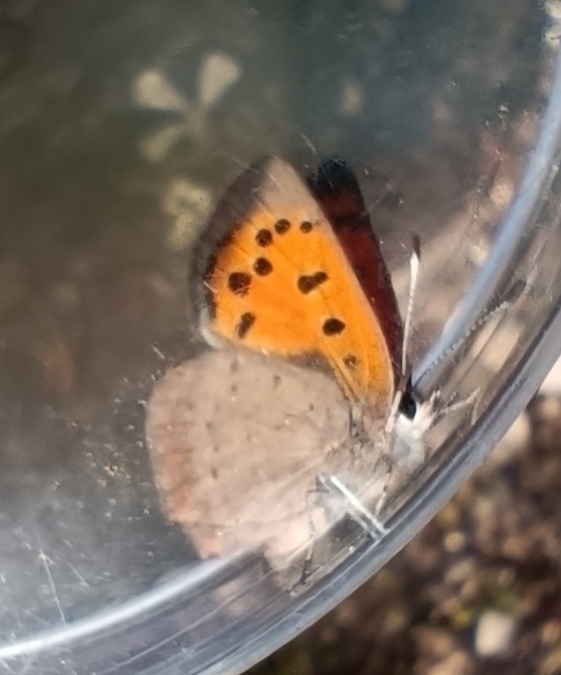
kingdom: Animalia
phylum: Arthropoda
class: Insecta
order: Lepidoptera
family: Lycaenidae
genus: Lycaena
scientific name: Lycaena phlaeas
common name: Small copper
